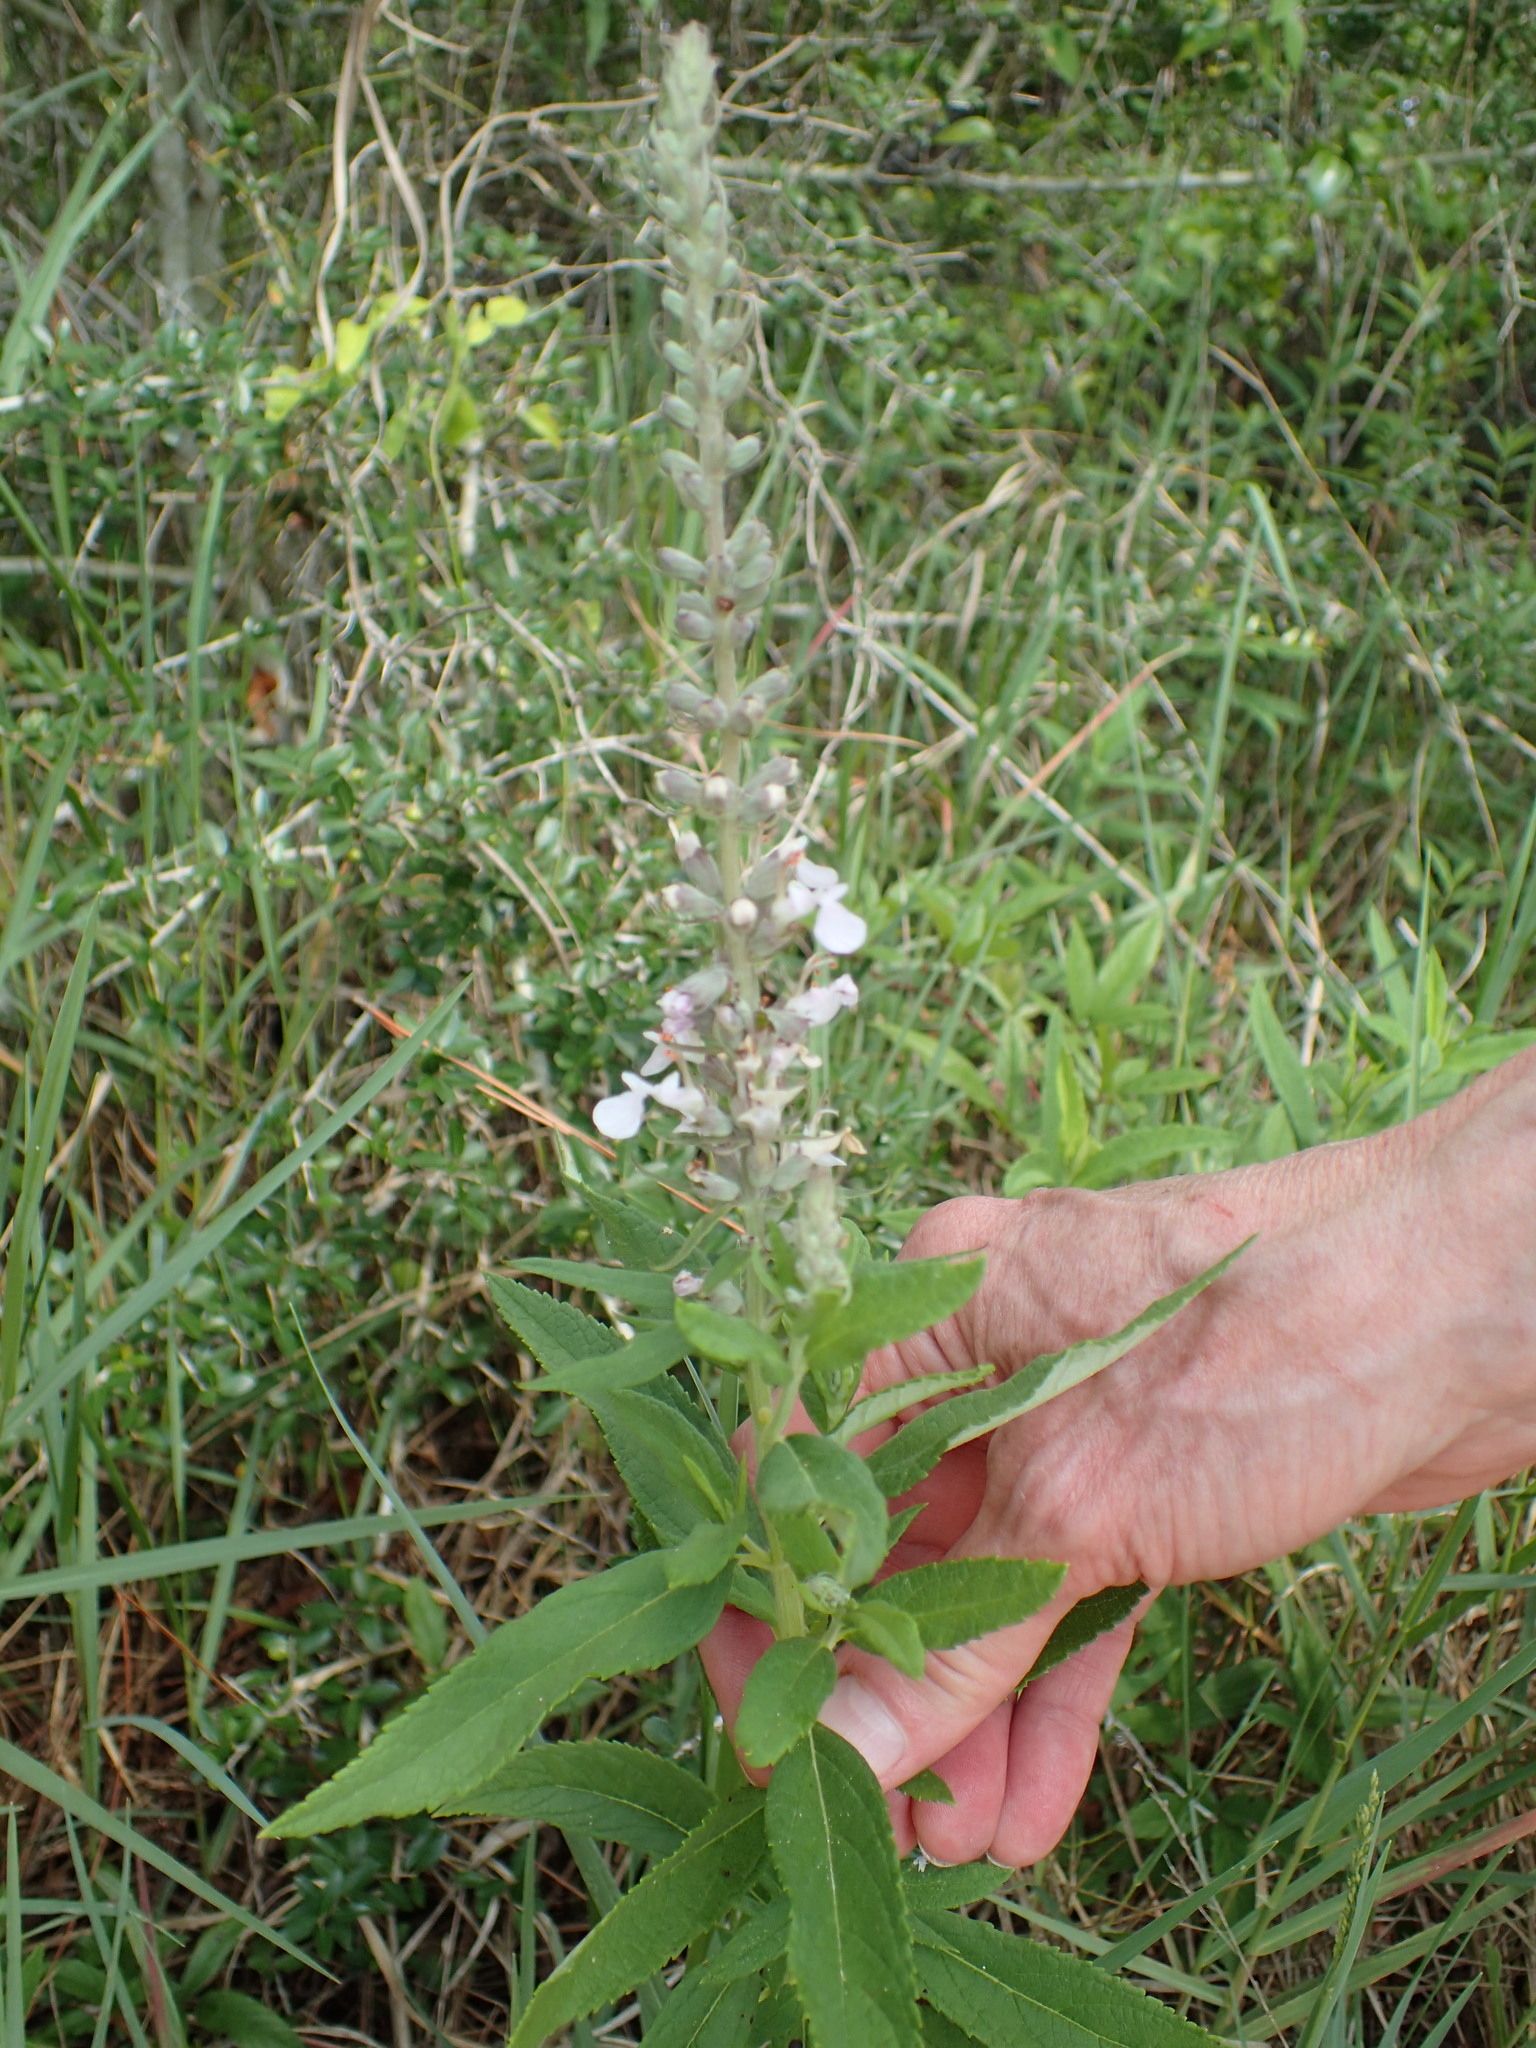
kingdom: Plantae
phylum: Tracheophyta
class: Magnoliopsida
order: Lamiales
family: Lamiaceae
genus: Teucrium
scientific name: Teucrium canadense
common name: American germander
